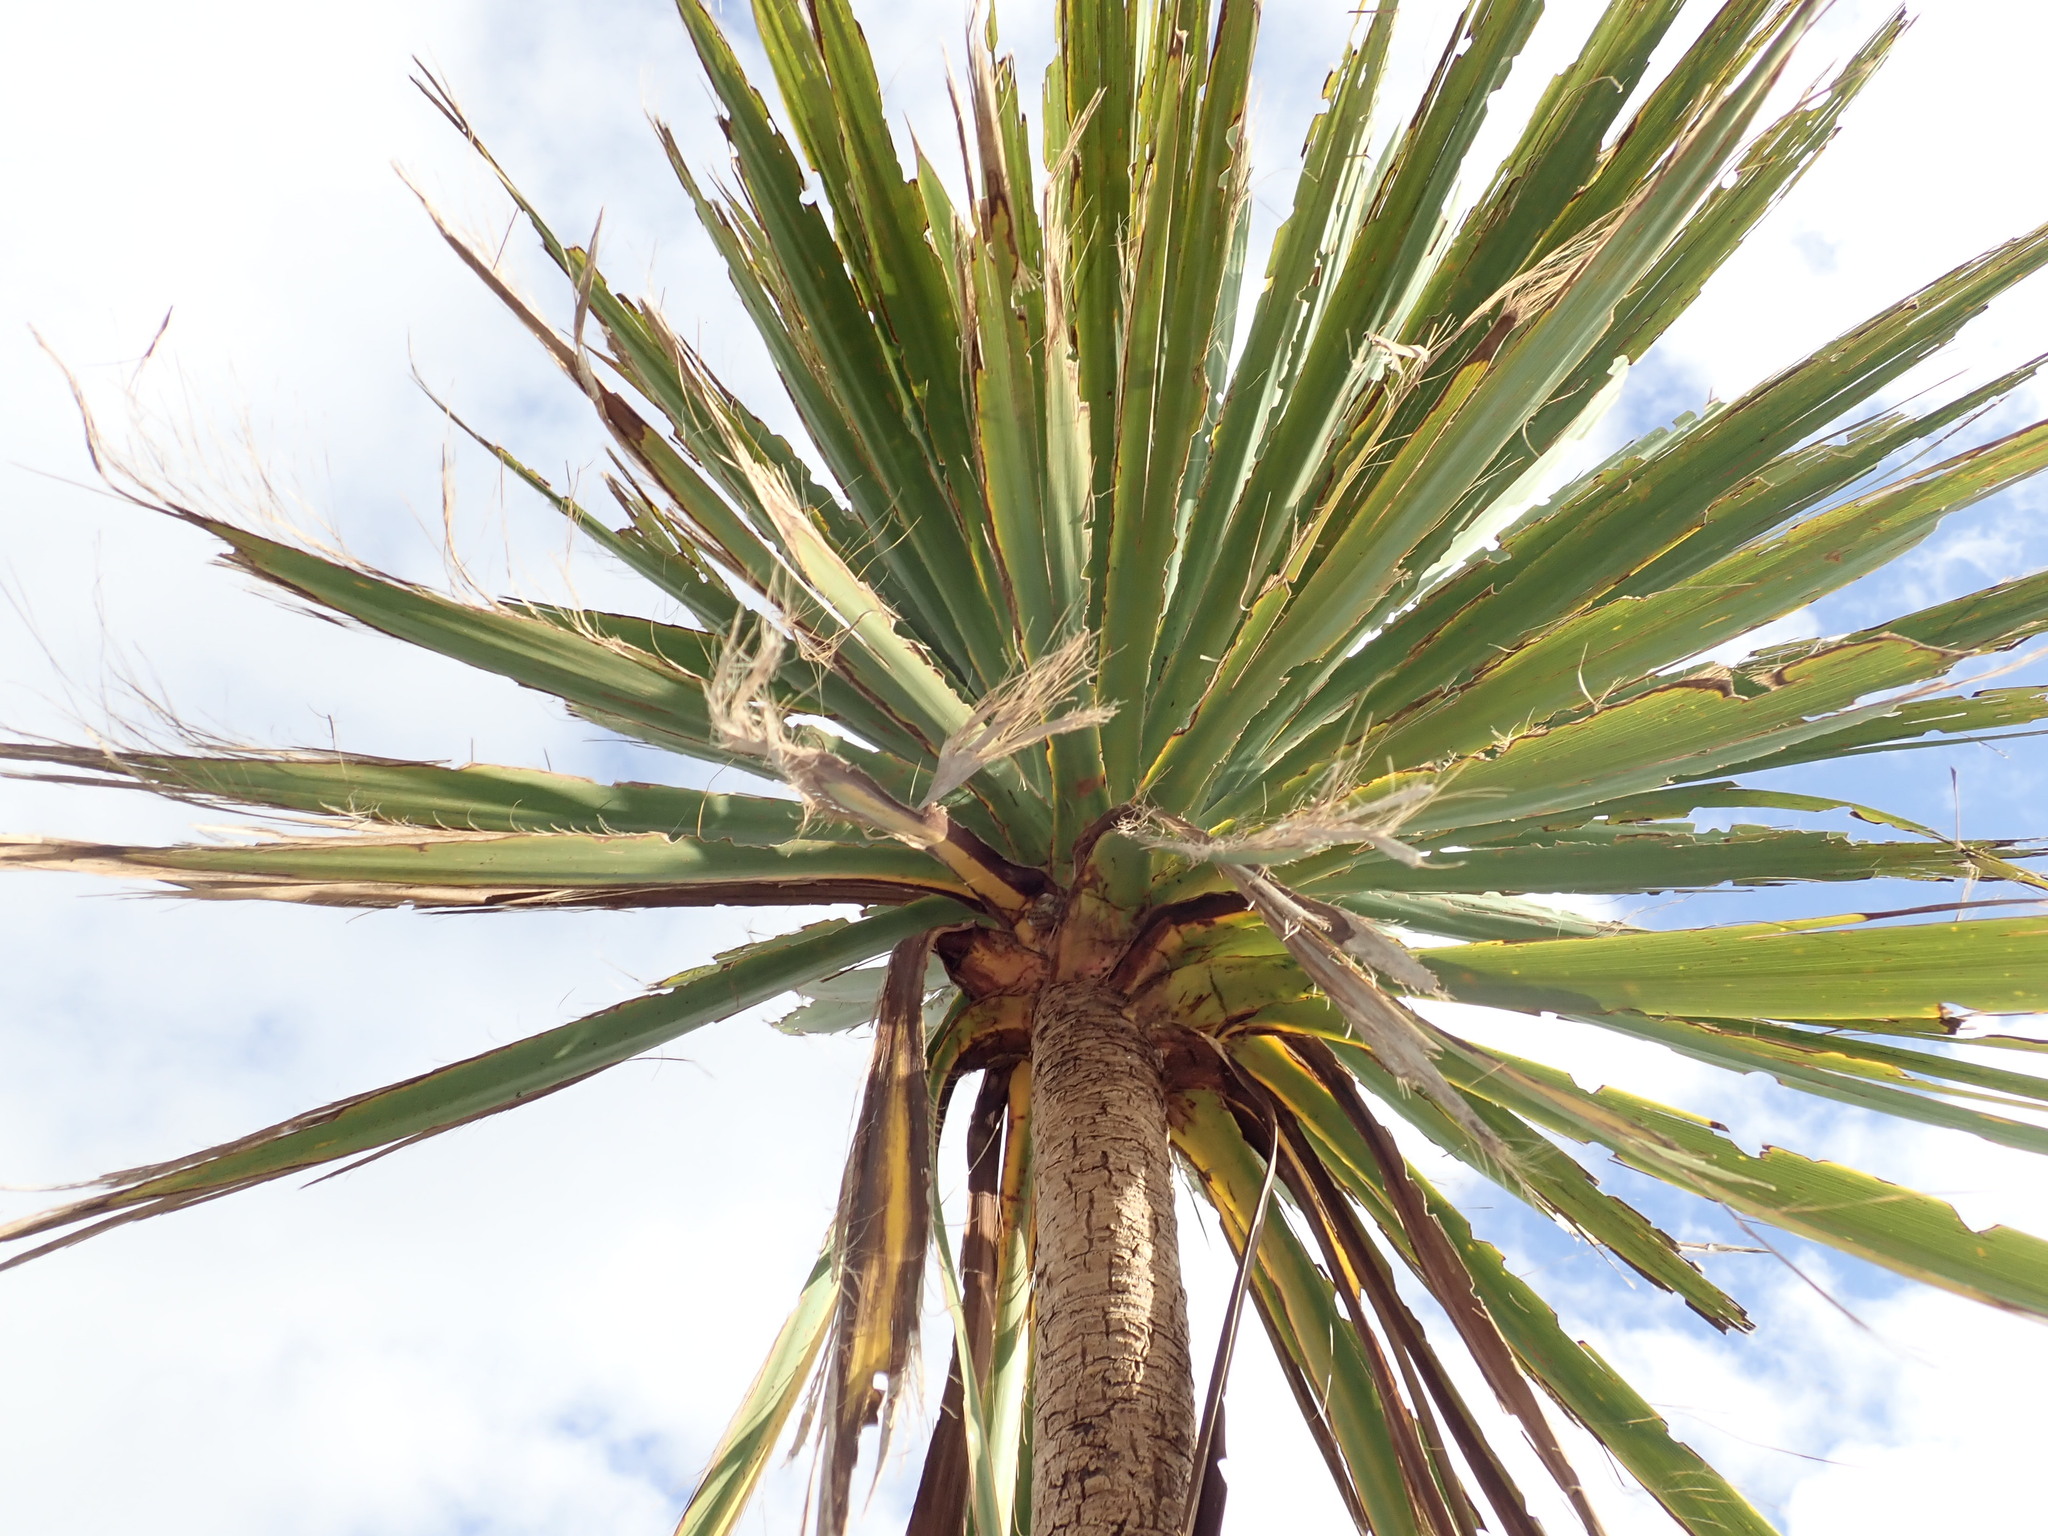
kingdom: Plantae
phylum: Tracheophyta
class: Liliopsida
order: Asparagales
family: Asparagaceae
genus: Cordyline
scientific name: Cordyline australis
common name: Cabbage-palm
